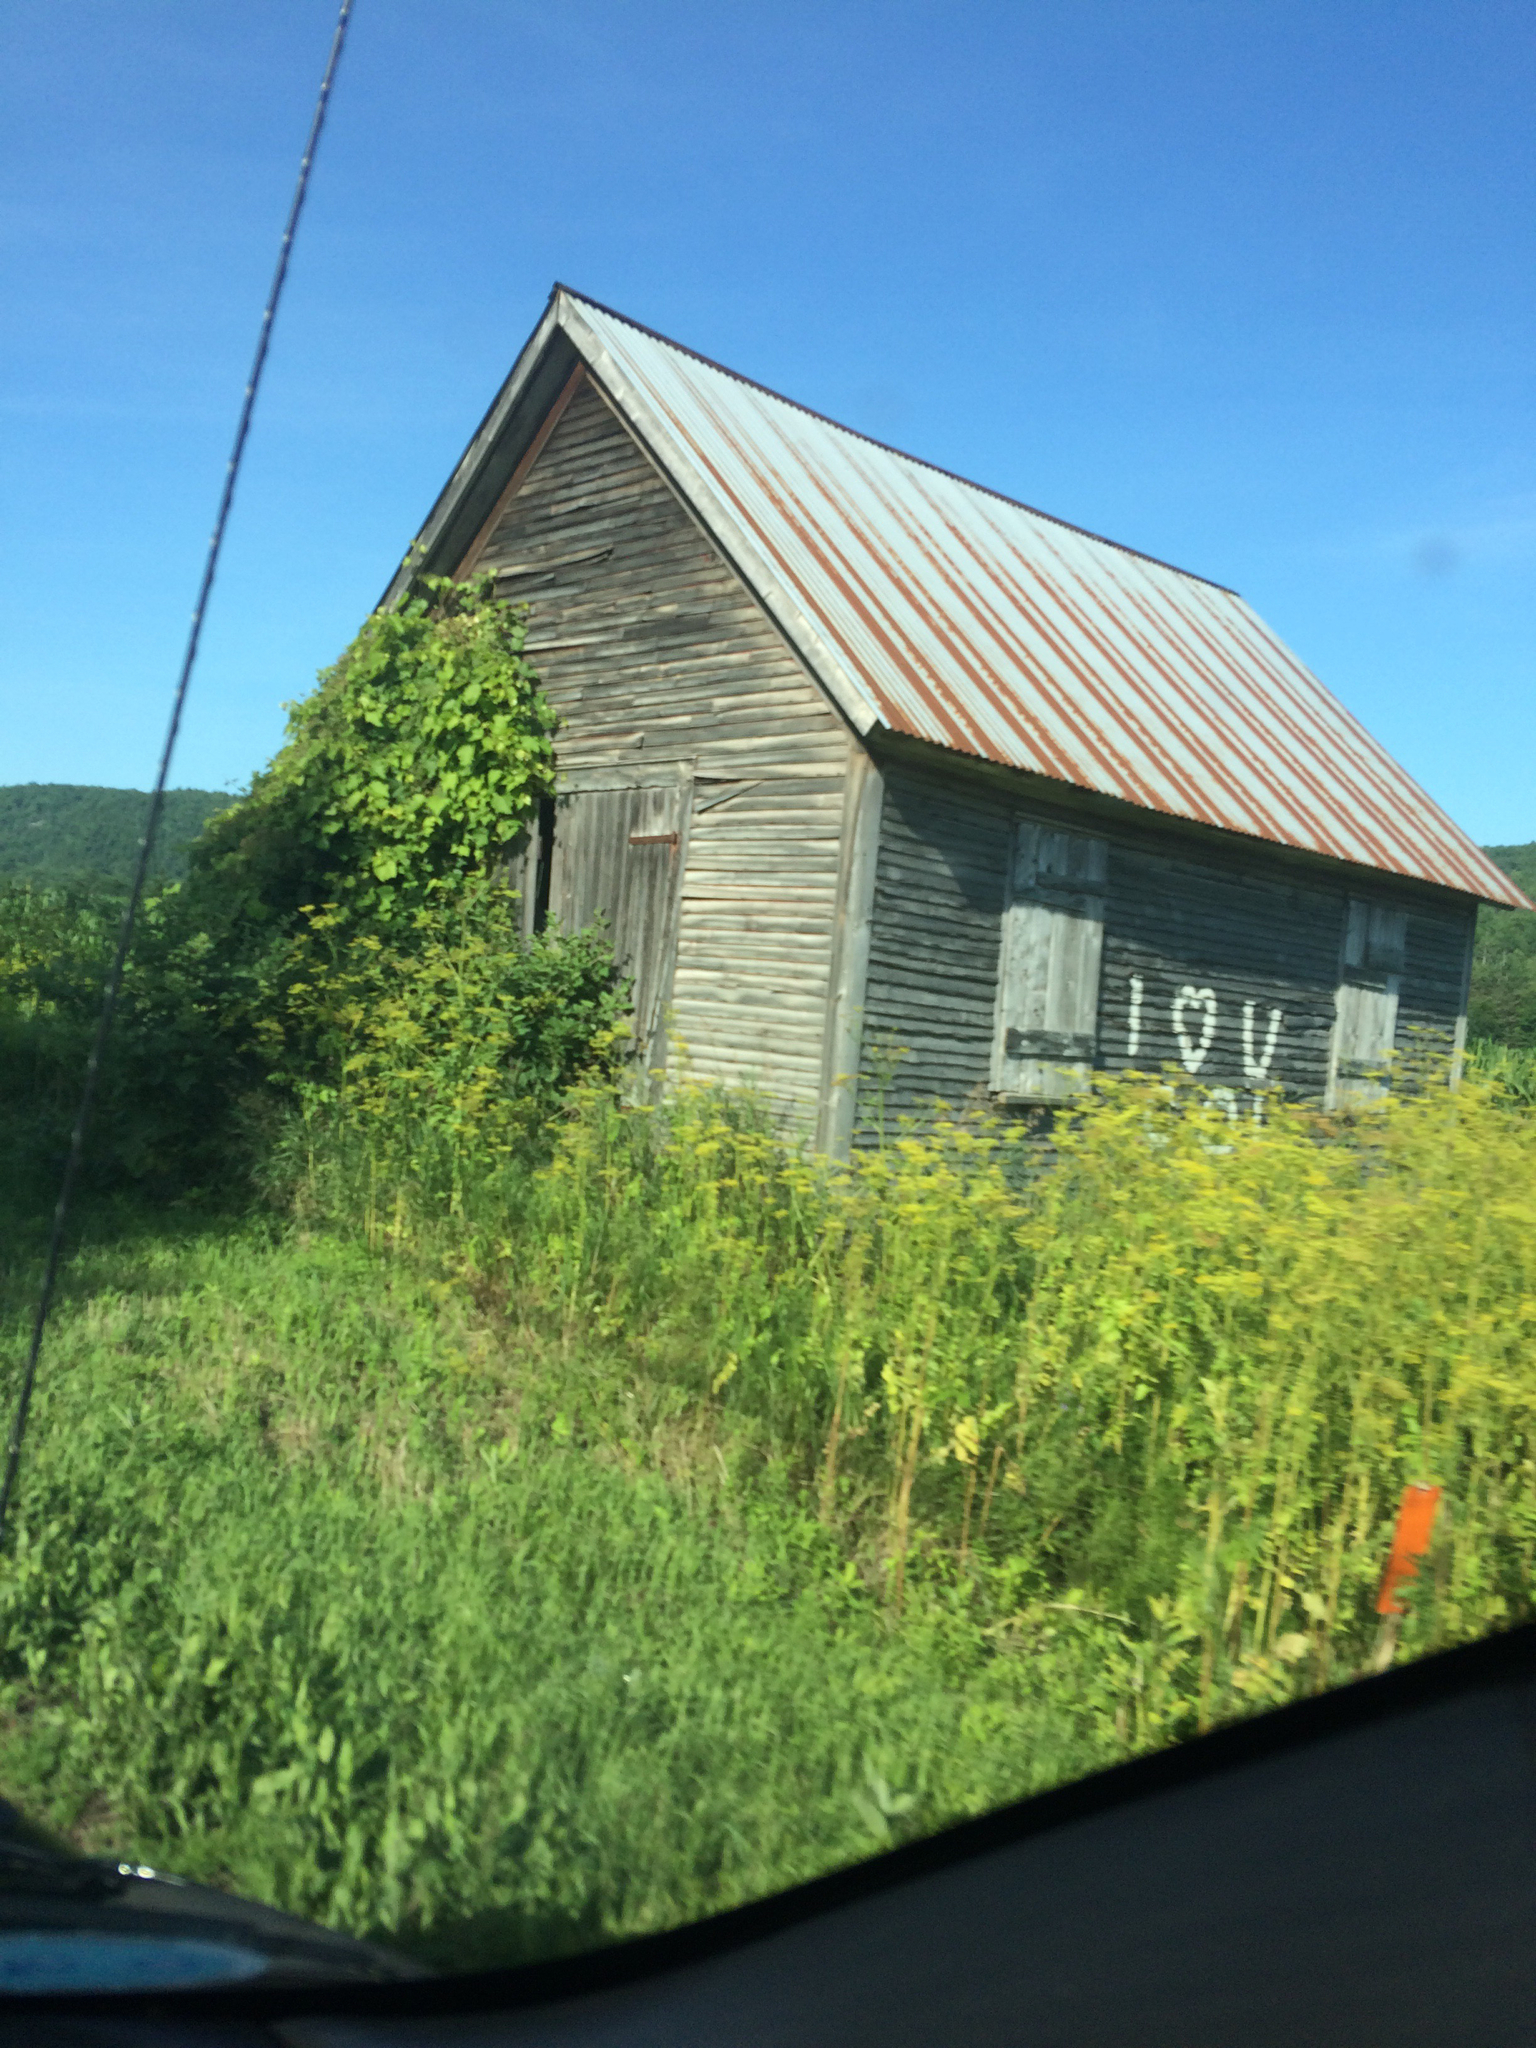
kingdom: Plantae
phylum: Tracheophyta
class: Magnoliopsida
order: Apiales
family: Apiaceae
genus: Pastinaca
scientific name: Pastinaca sativa
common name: Wild parsnip
